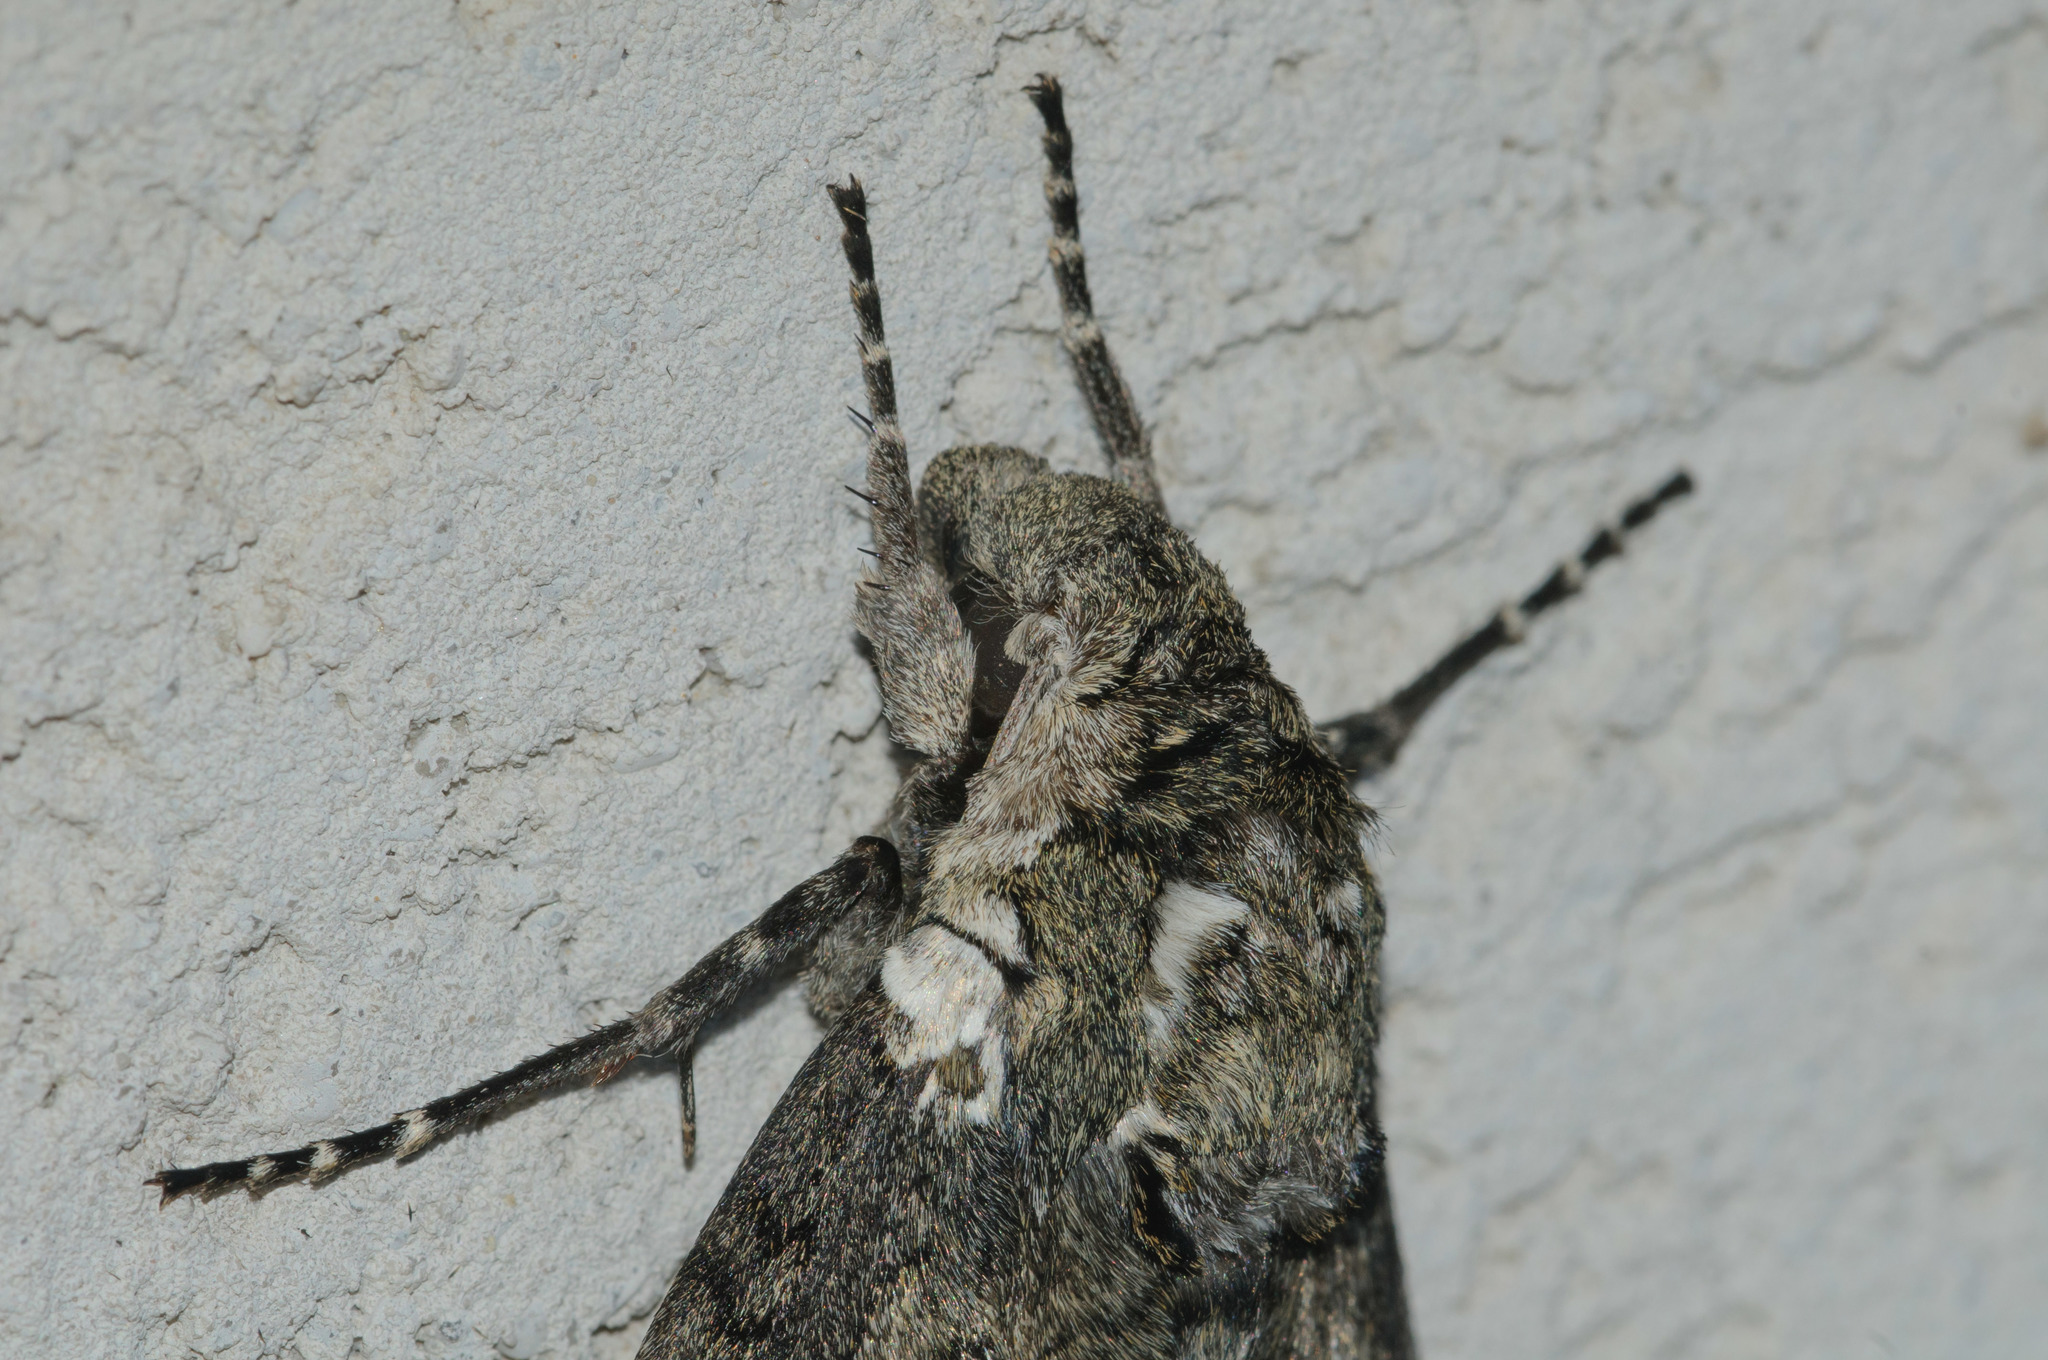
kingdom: Animalia
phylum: Arthropoda
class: Insecta
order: Lepidoptera
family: Sphingidae
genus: Manduca
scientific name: Manduca sexta
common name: Carolina sphinx
